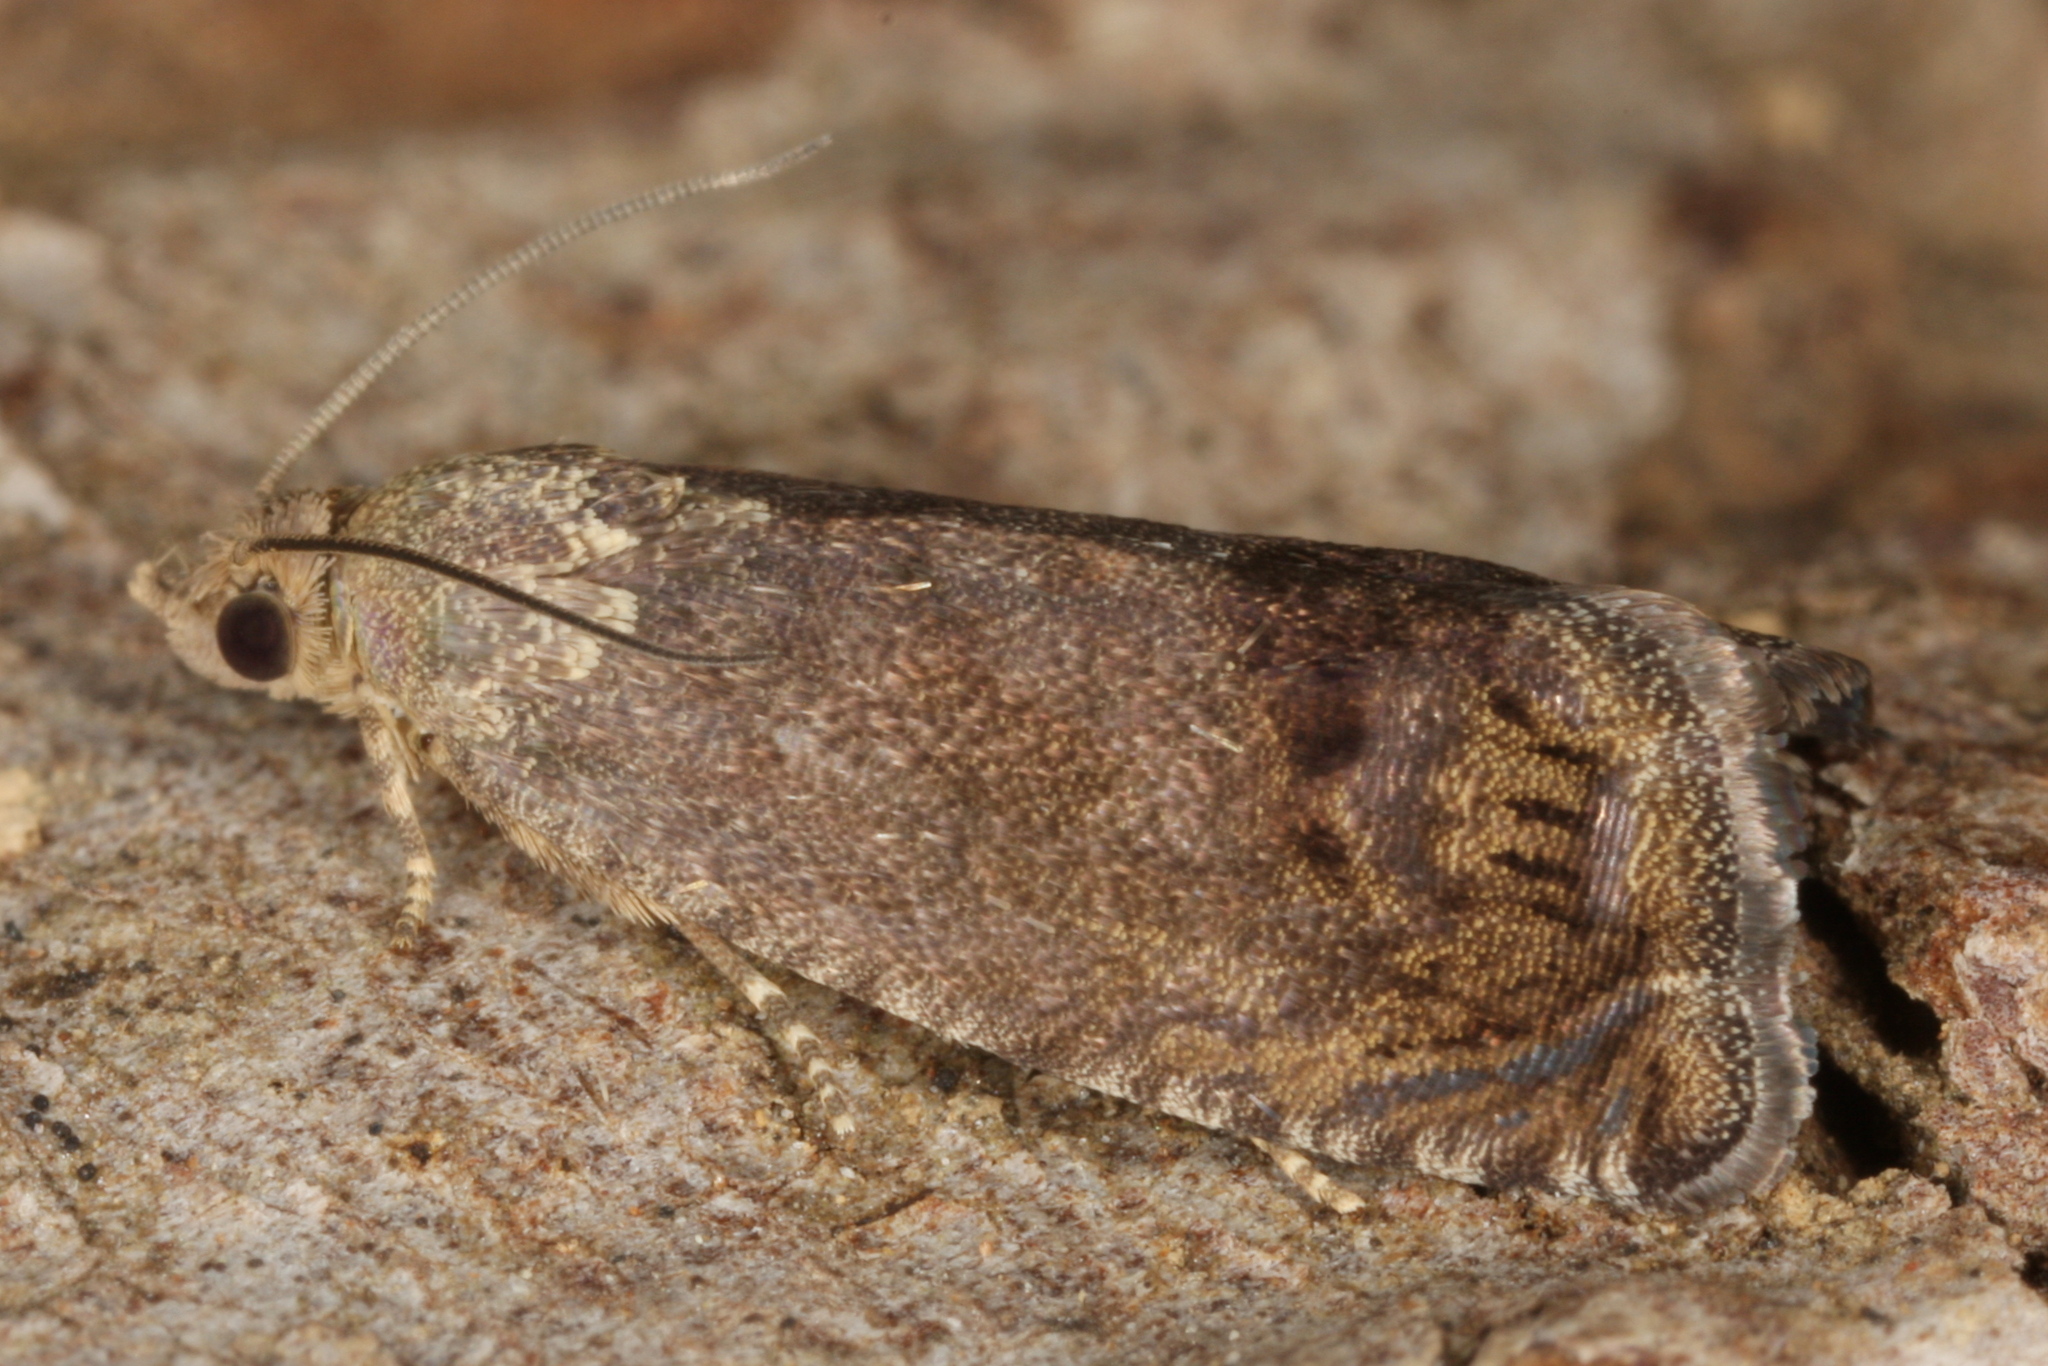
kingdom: Animalia
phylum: Arthropoda
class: Insecta
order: Lepidoptera
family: Tortricidae
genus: Cydia
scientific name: Cydia splendana
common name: De: kastanienwickler, eichenwickler es: oruga de la castaña fr: carpocapse des châtaignes it: cidia o tortrice tardiva delle castagne pt: bichado das castanhas gb: acorn moth, chestnut fruit tortrix
